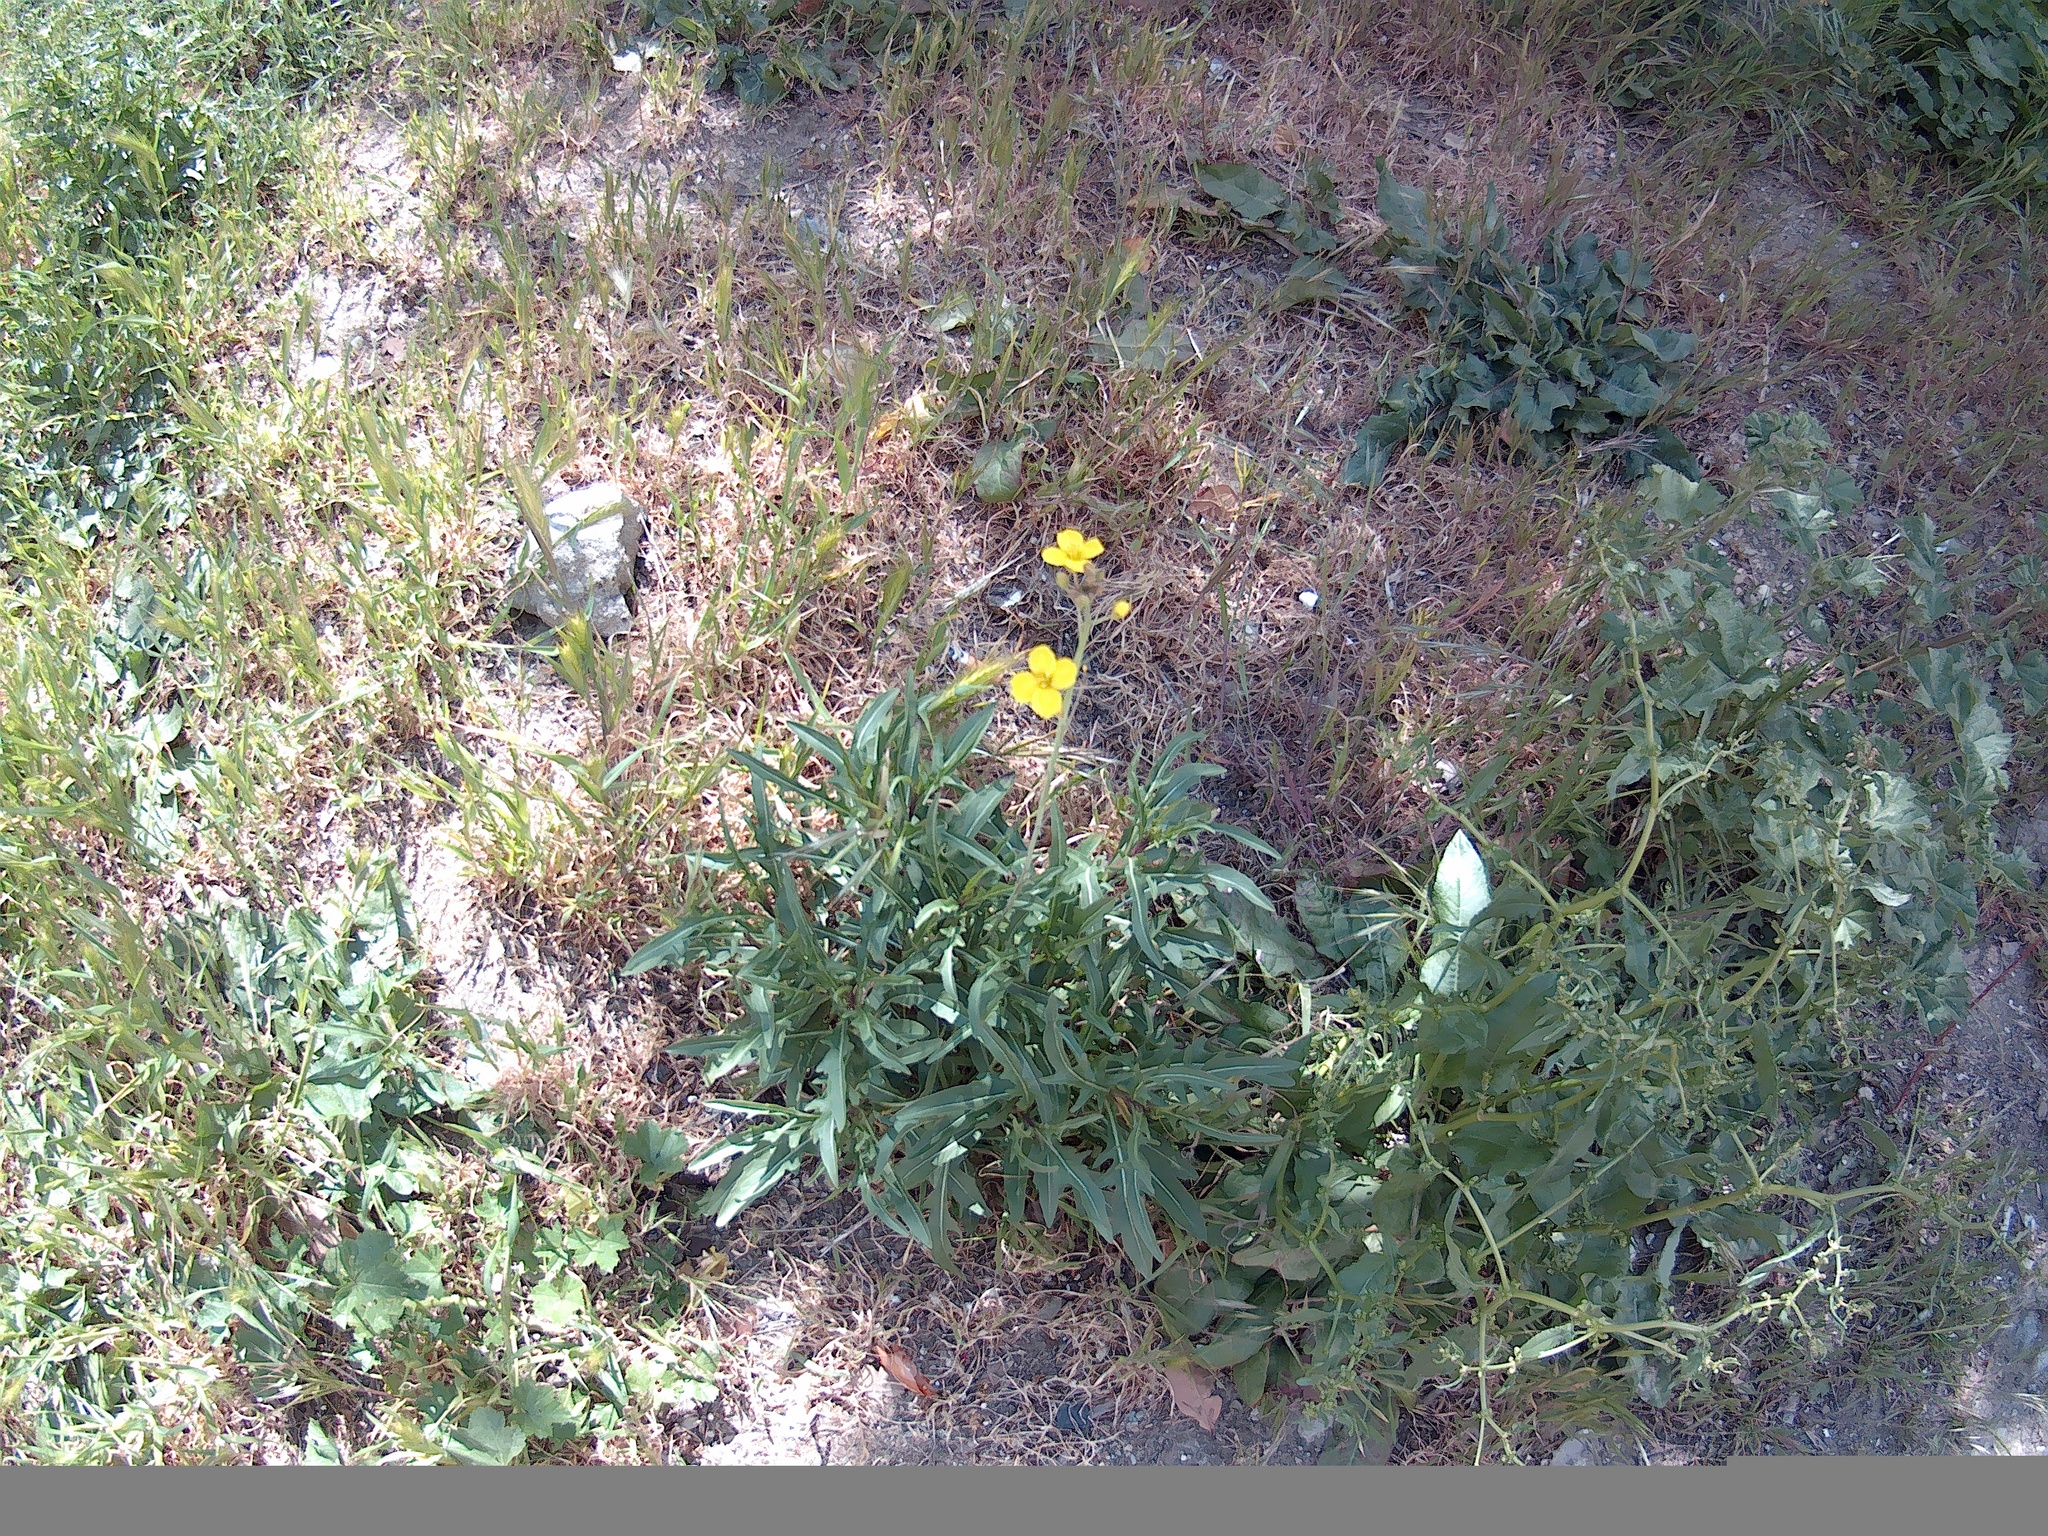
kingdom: Plantae
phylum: Tracheophyta
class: Magnoliopsida
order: Brassicales
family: Brassicaceae
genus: Diplotaxis
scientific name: Diplotaxis tenuifolia
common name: Perennial wall-rocket
